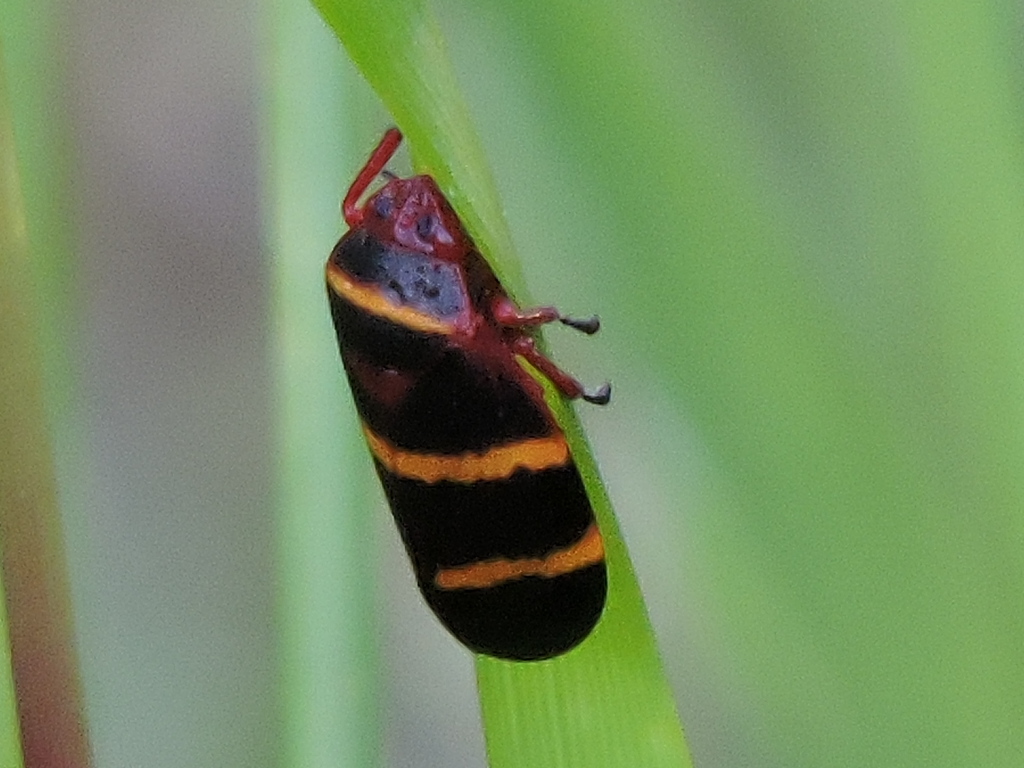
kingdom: Animalia
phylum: Arthropoda
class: Insecta
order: Hemiptera
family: Cercopidae
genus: Prosapia
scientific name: Prosapia bicincta
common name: Twolined spittlebug
